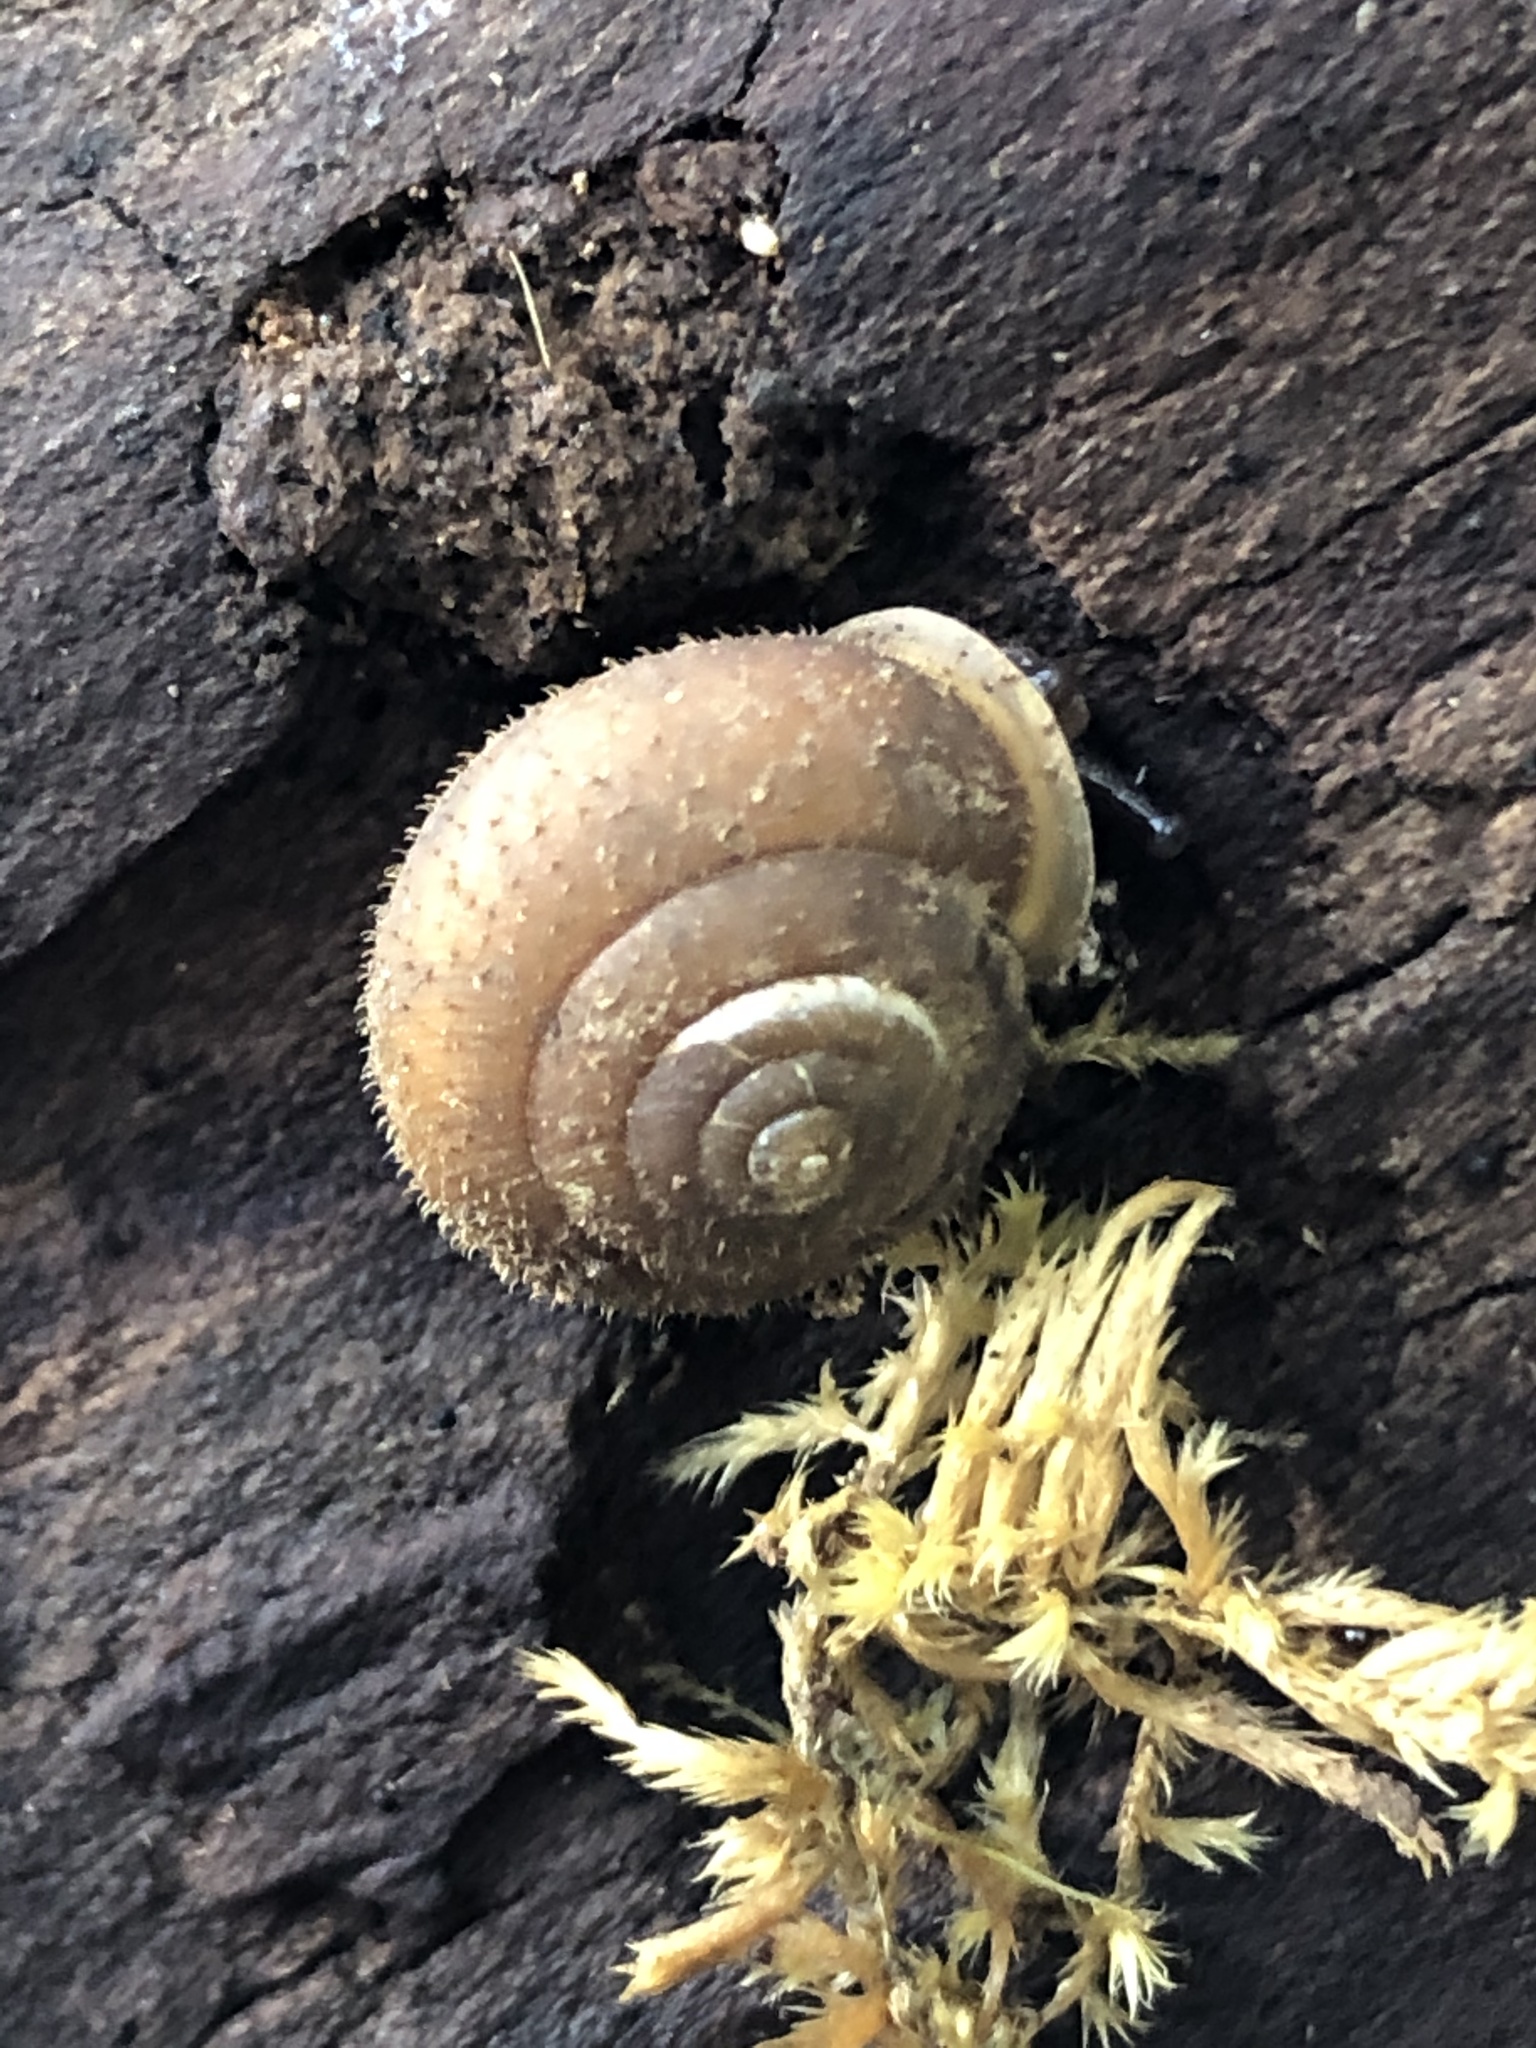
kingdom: Animalia
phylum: Mollusca
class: Gastropoda
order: Stylommatophora
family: Polygyridae
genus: Cryptomastix
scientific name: Cryptomastix germana
